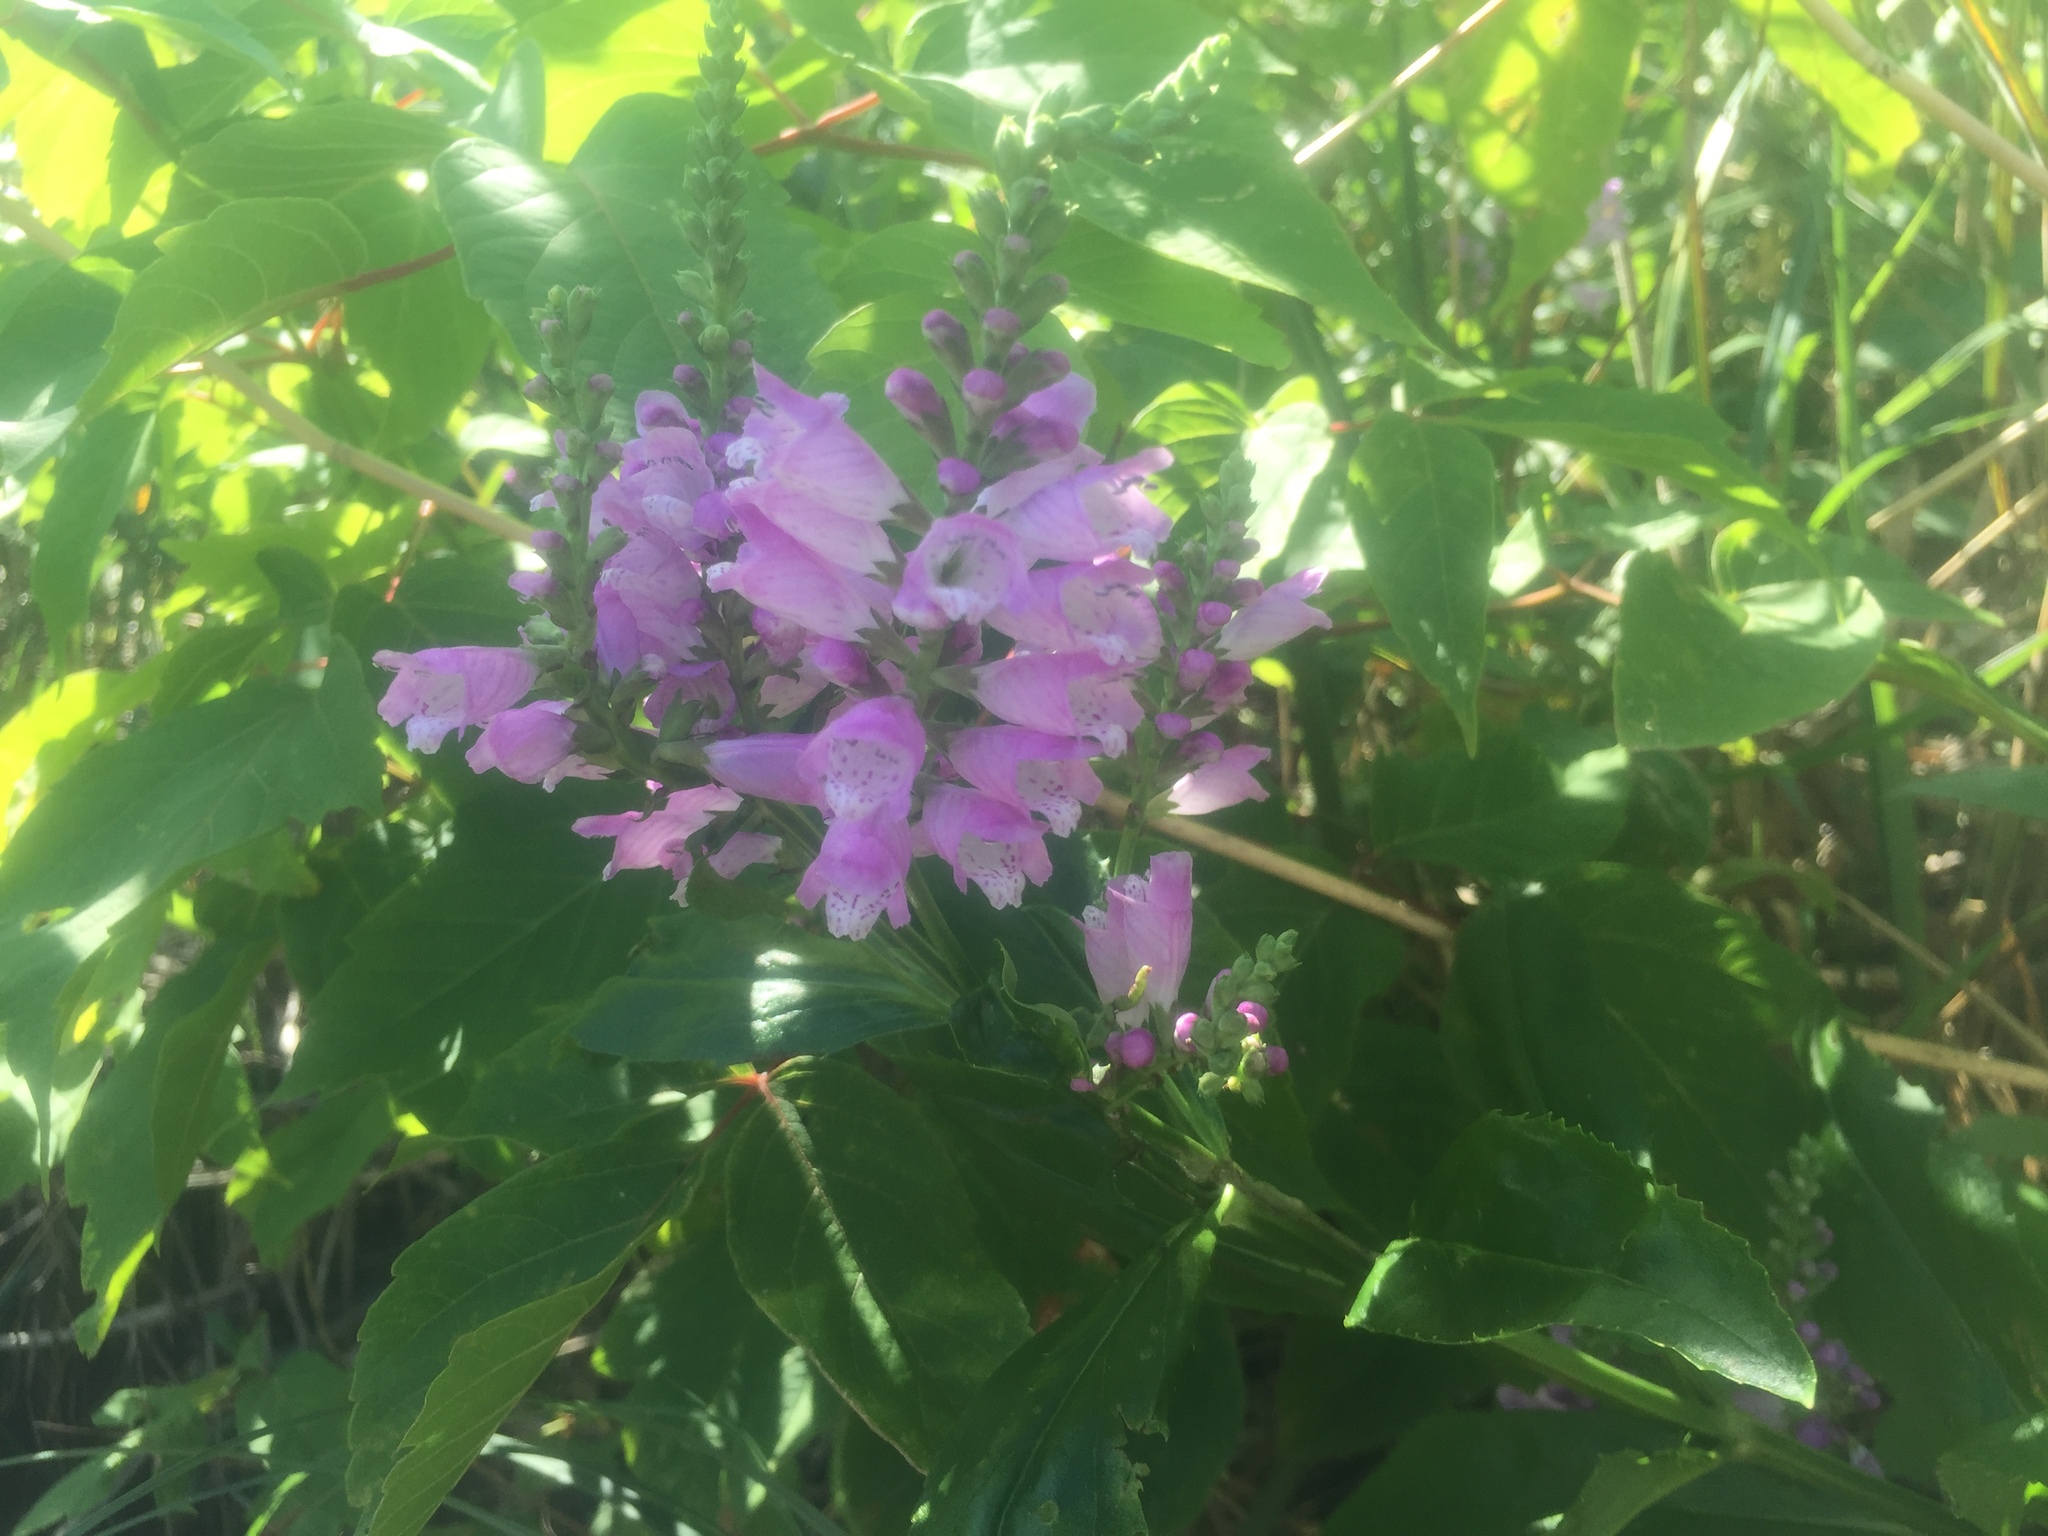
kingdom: Plantae
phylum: Tracheophyta
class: Magnoliopsida
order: Lamiales
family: Lamiaceae
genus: Physostegia
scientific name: Physostegia virginiana
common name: Obedient-plant
